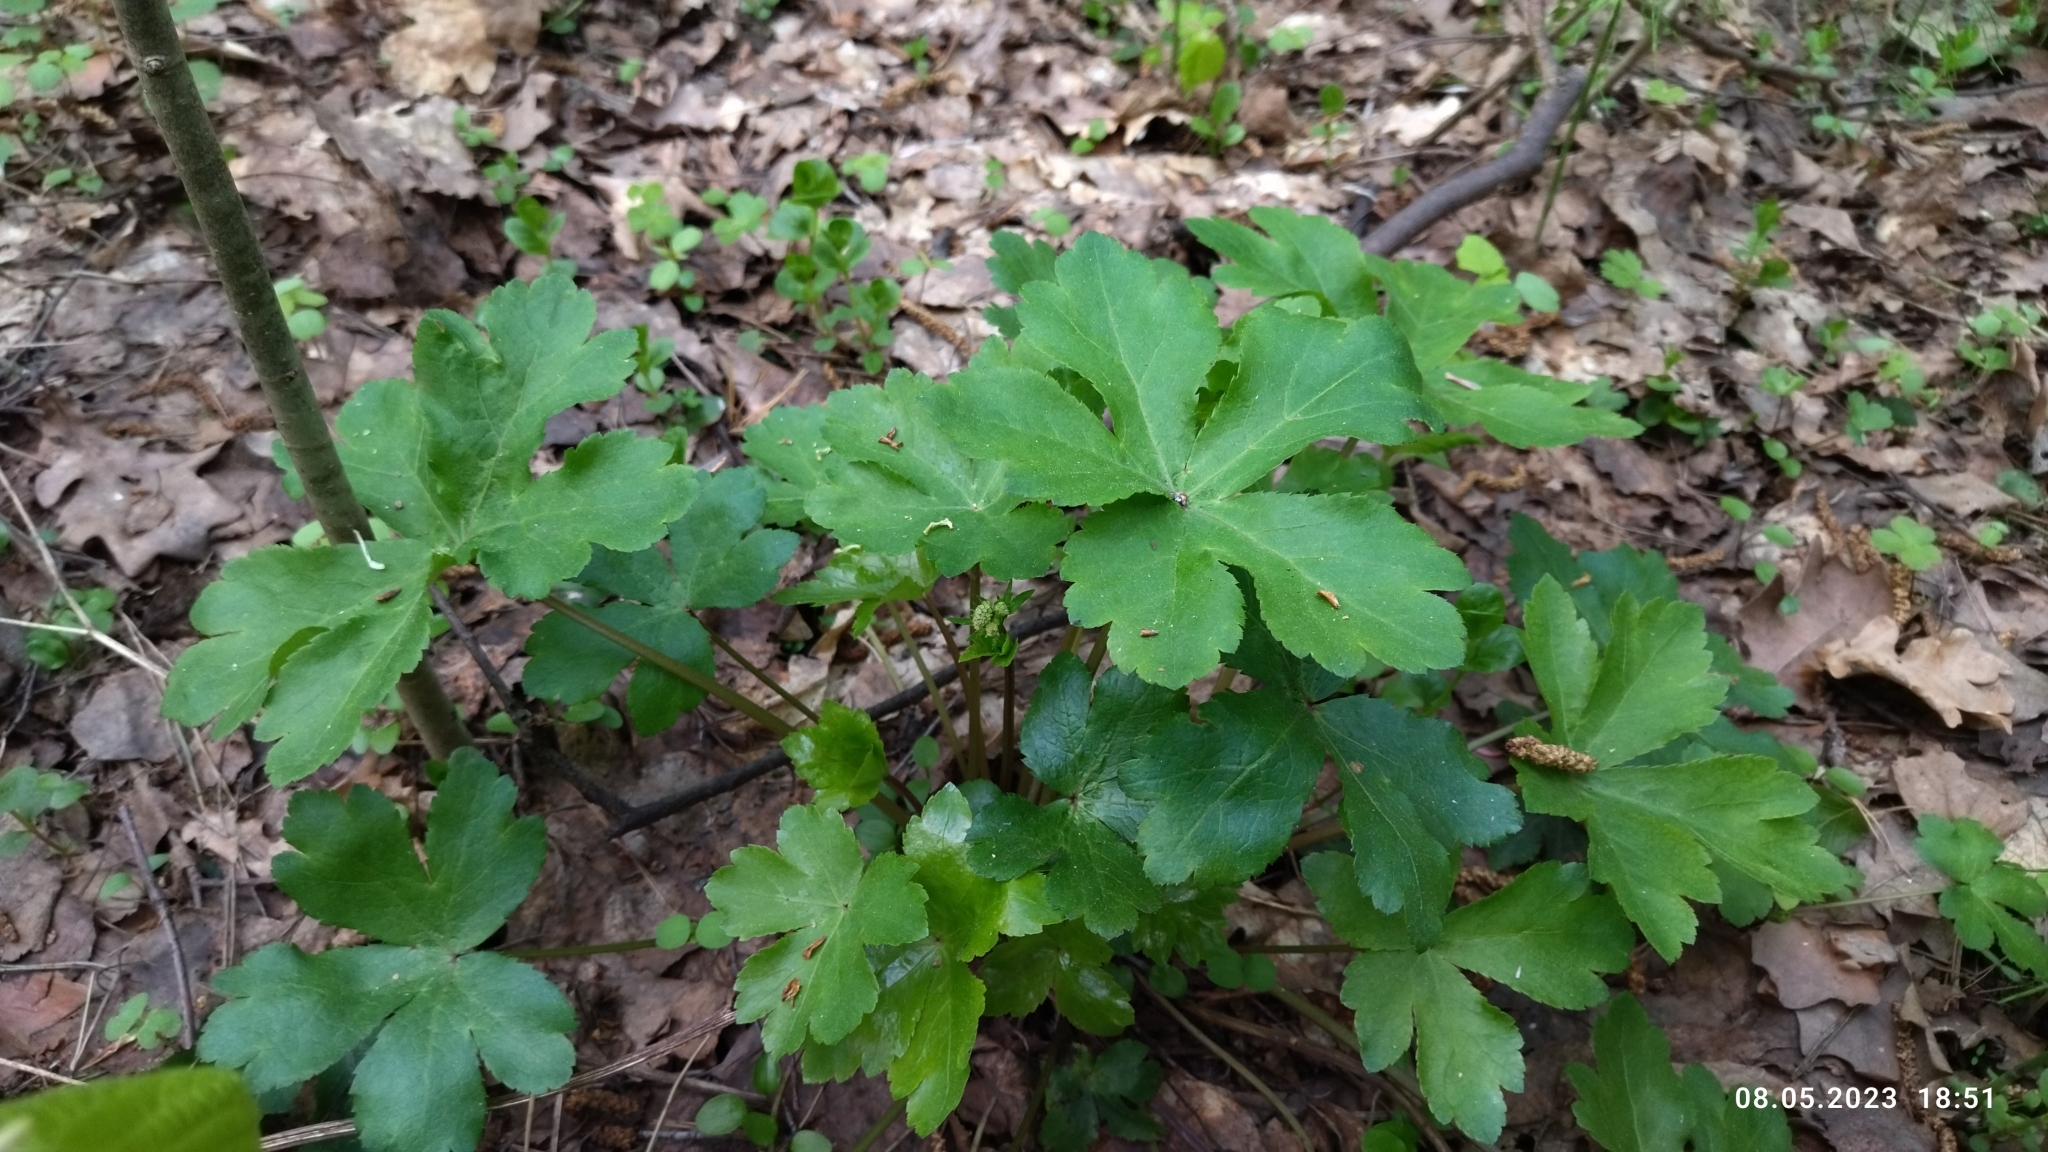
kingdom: Plantae
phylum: Tracheophyta
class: Magnoliopsida
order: Apiales
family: Apiaceae
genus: Sanicula
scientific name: Sanicula europaea
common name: Sanicle
